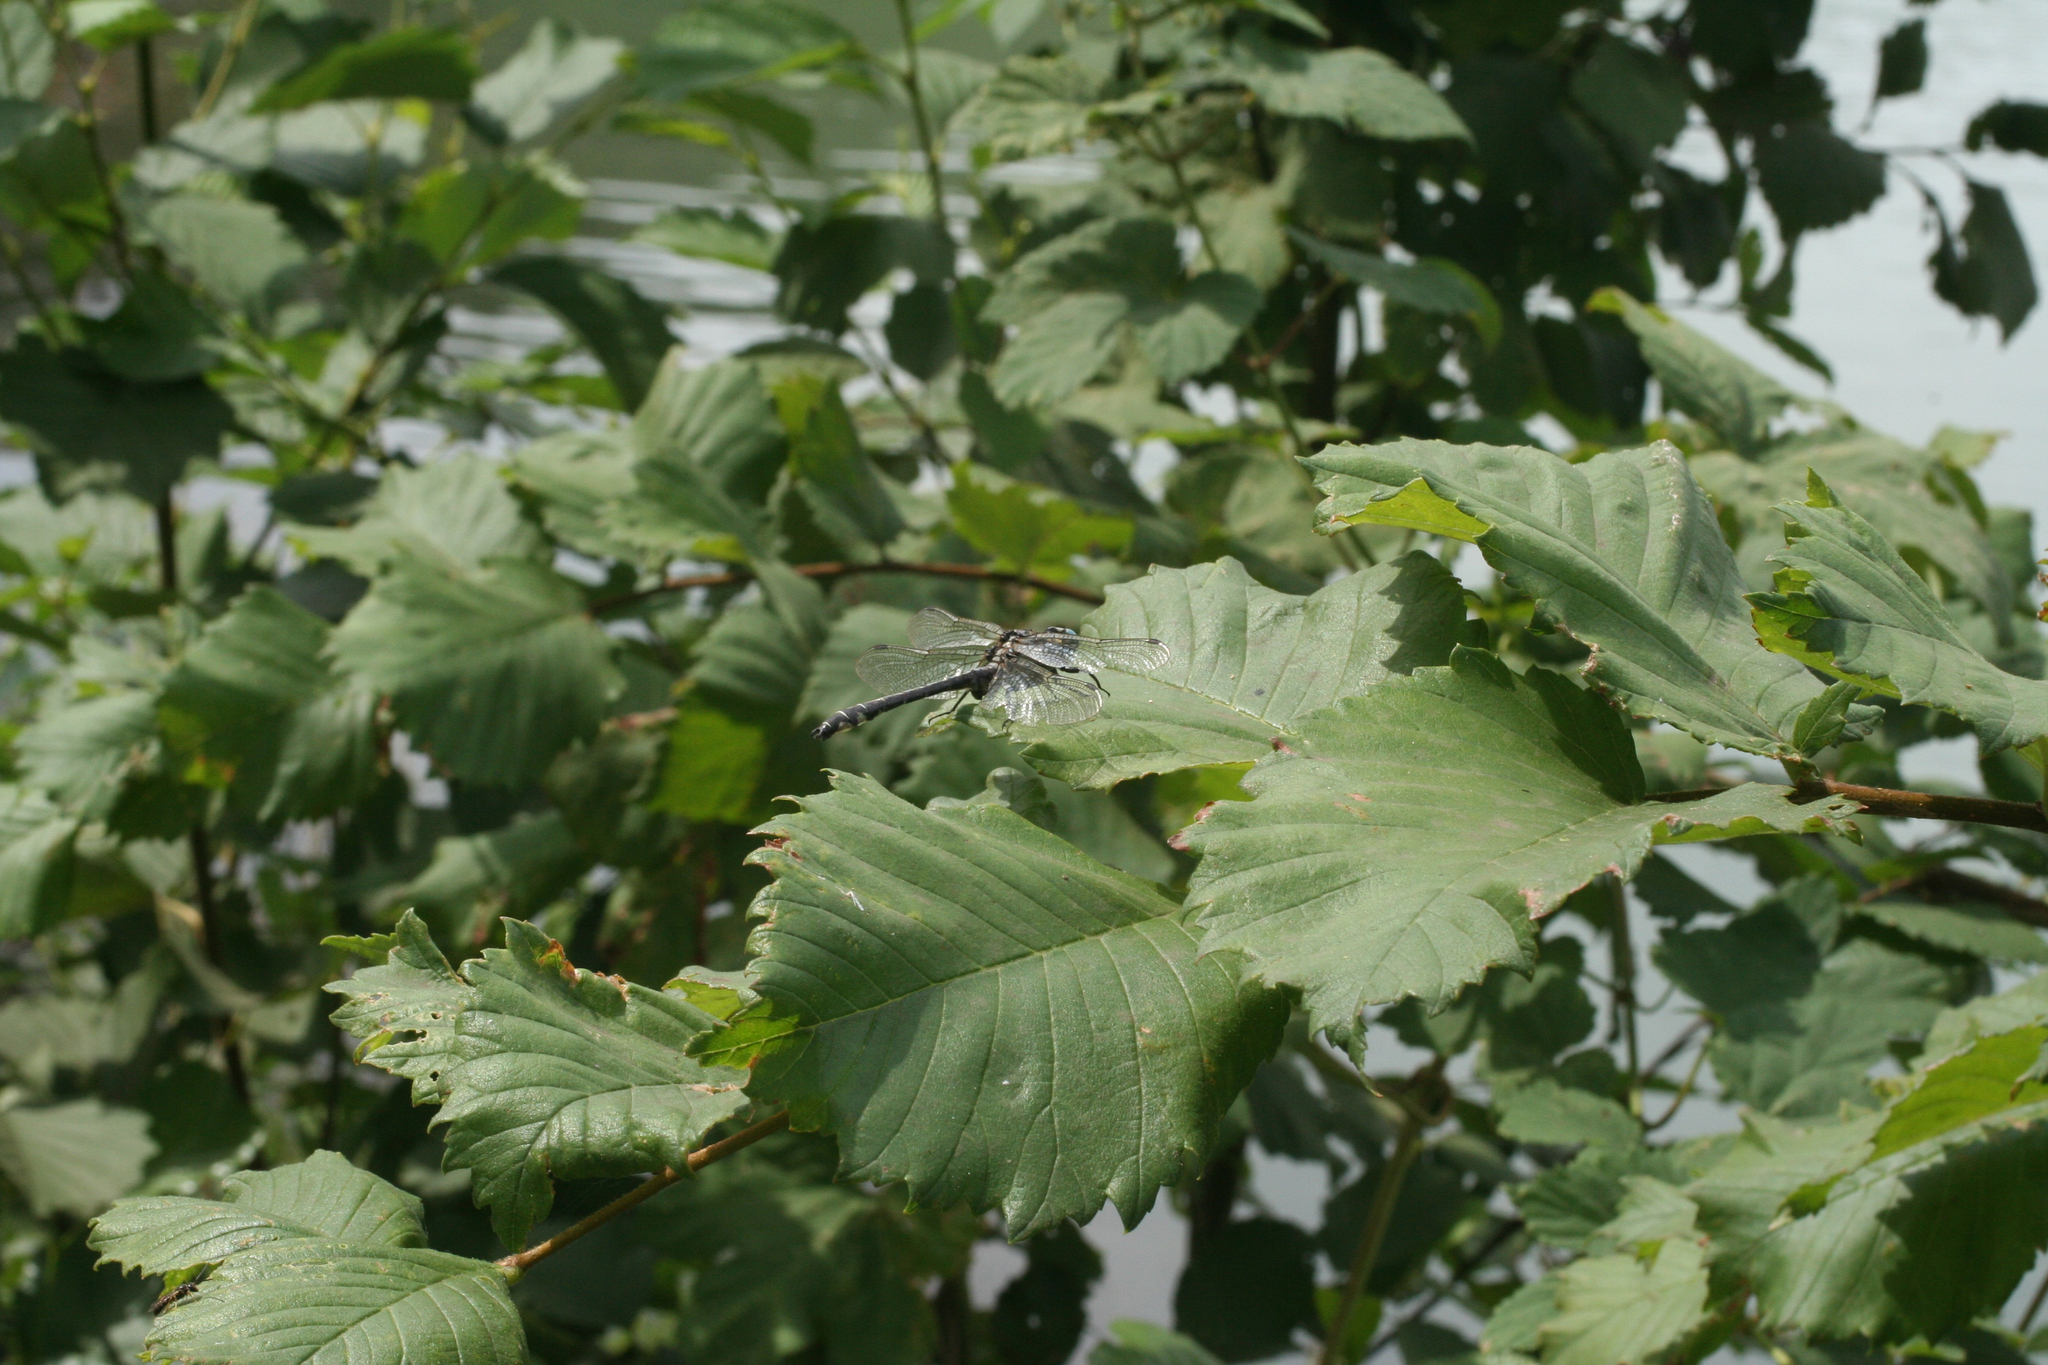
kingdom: Animalia
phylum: Arthropoda
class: Insecta
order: Odonata
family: Gomphidae
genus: Gomphus
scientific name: Gomphus vulgatissimus
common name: Club-tailed dragonfly
